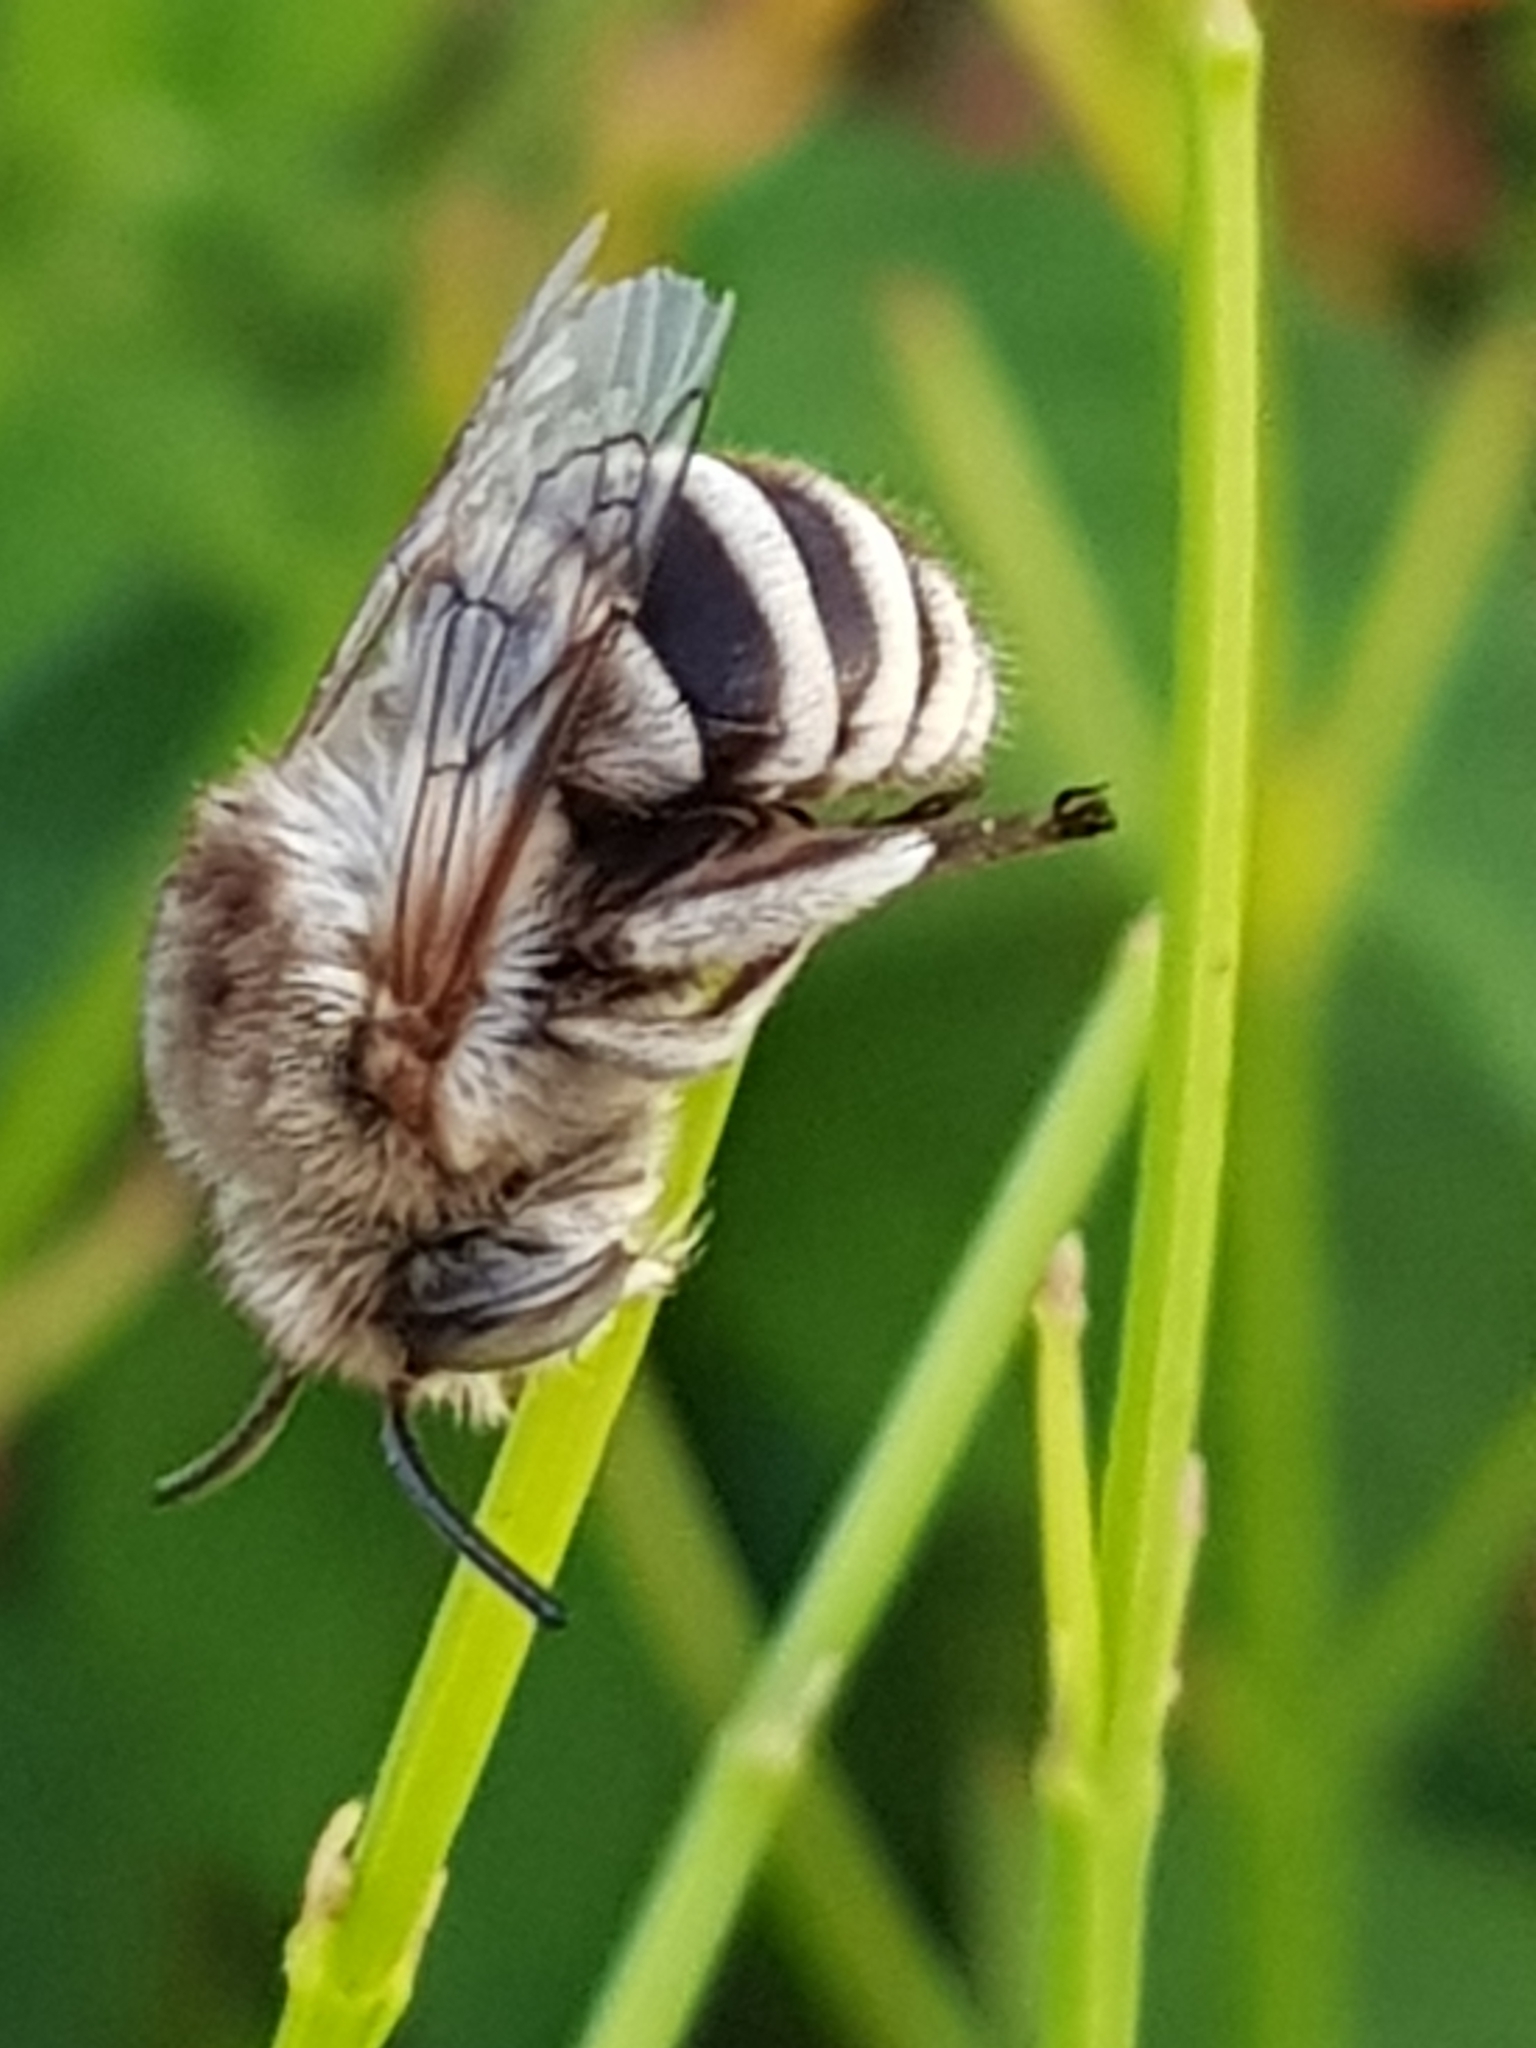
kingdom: Animalia
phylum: Arthropoda
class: Insecta
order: Hymenoptera
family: Apidae
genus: Amegilla
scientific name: Amegilla quadrifasciata
